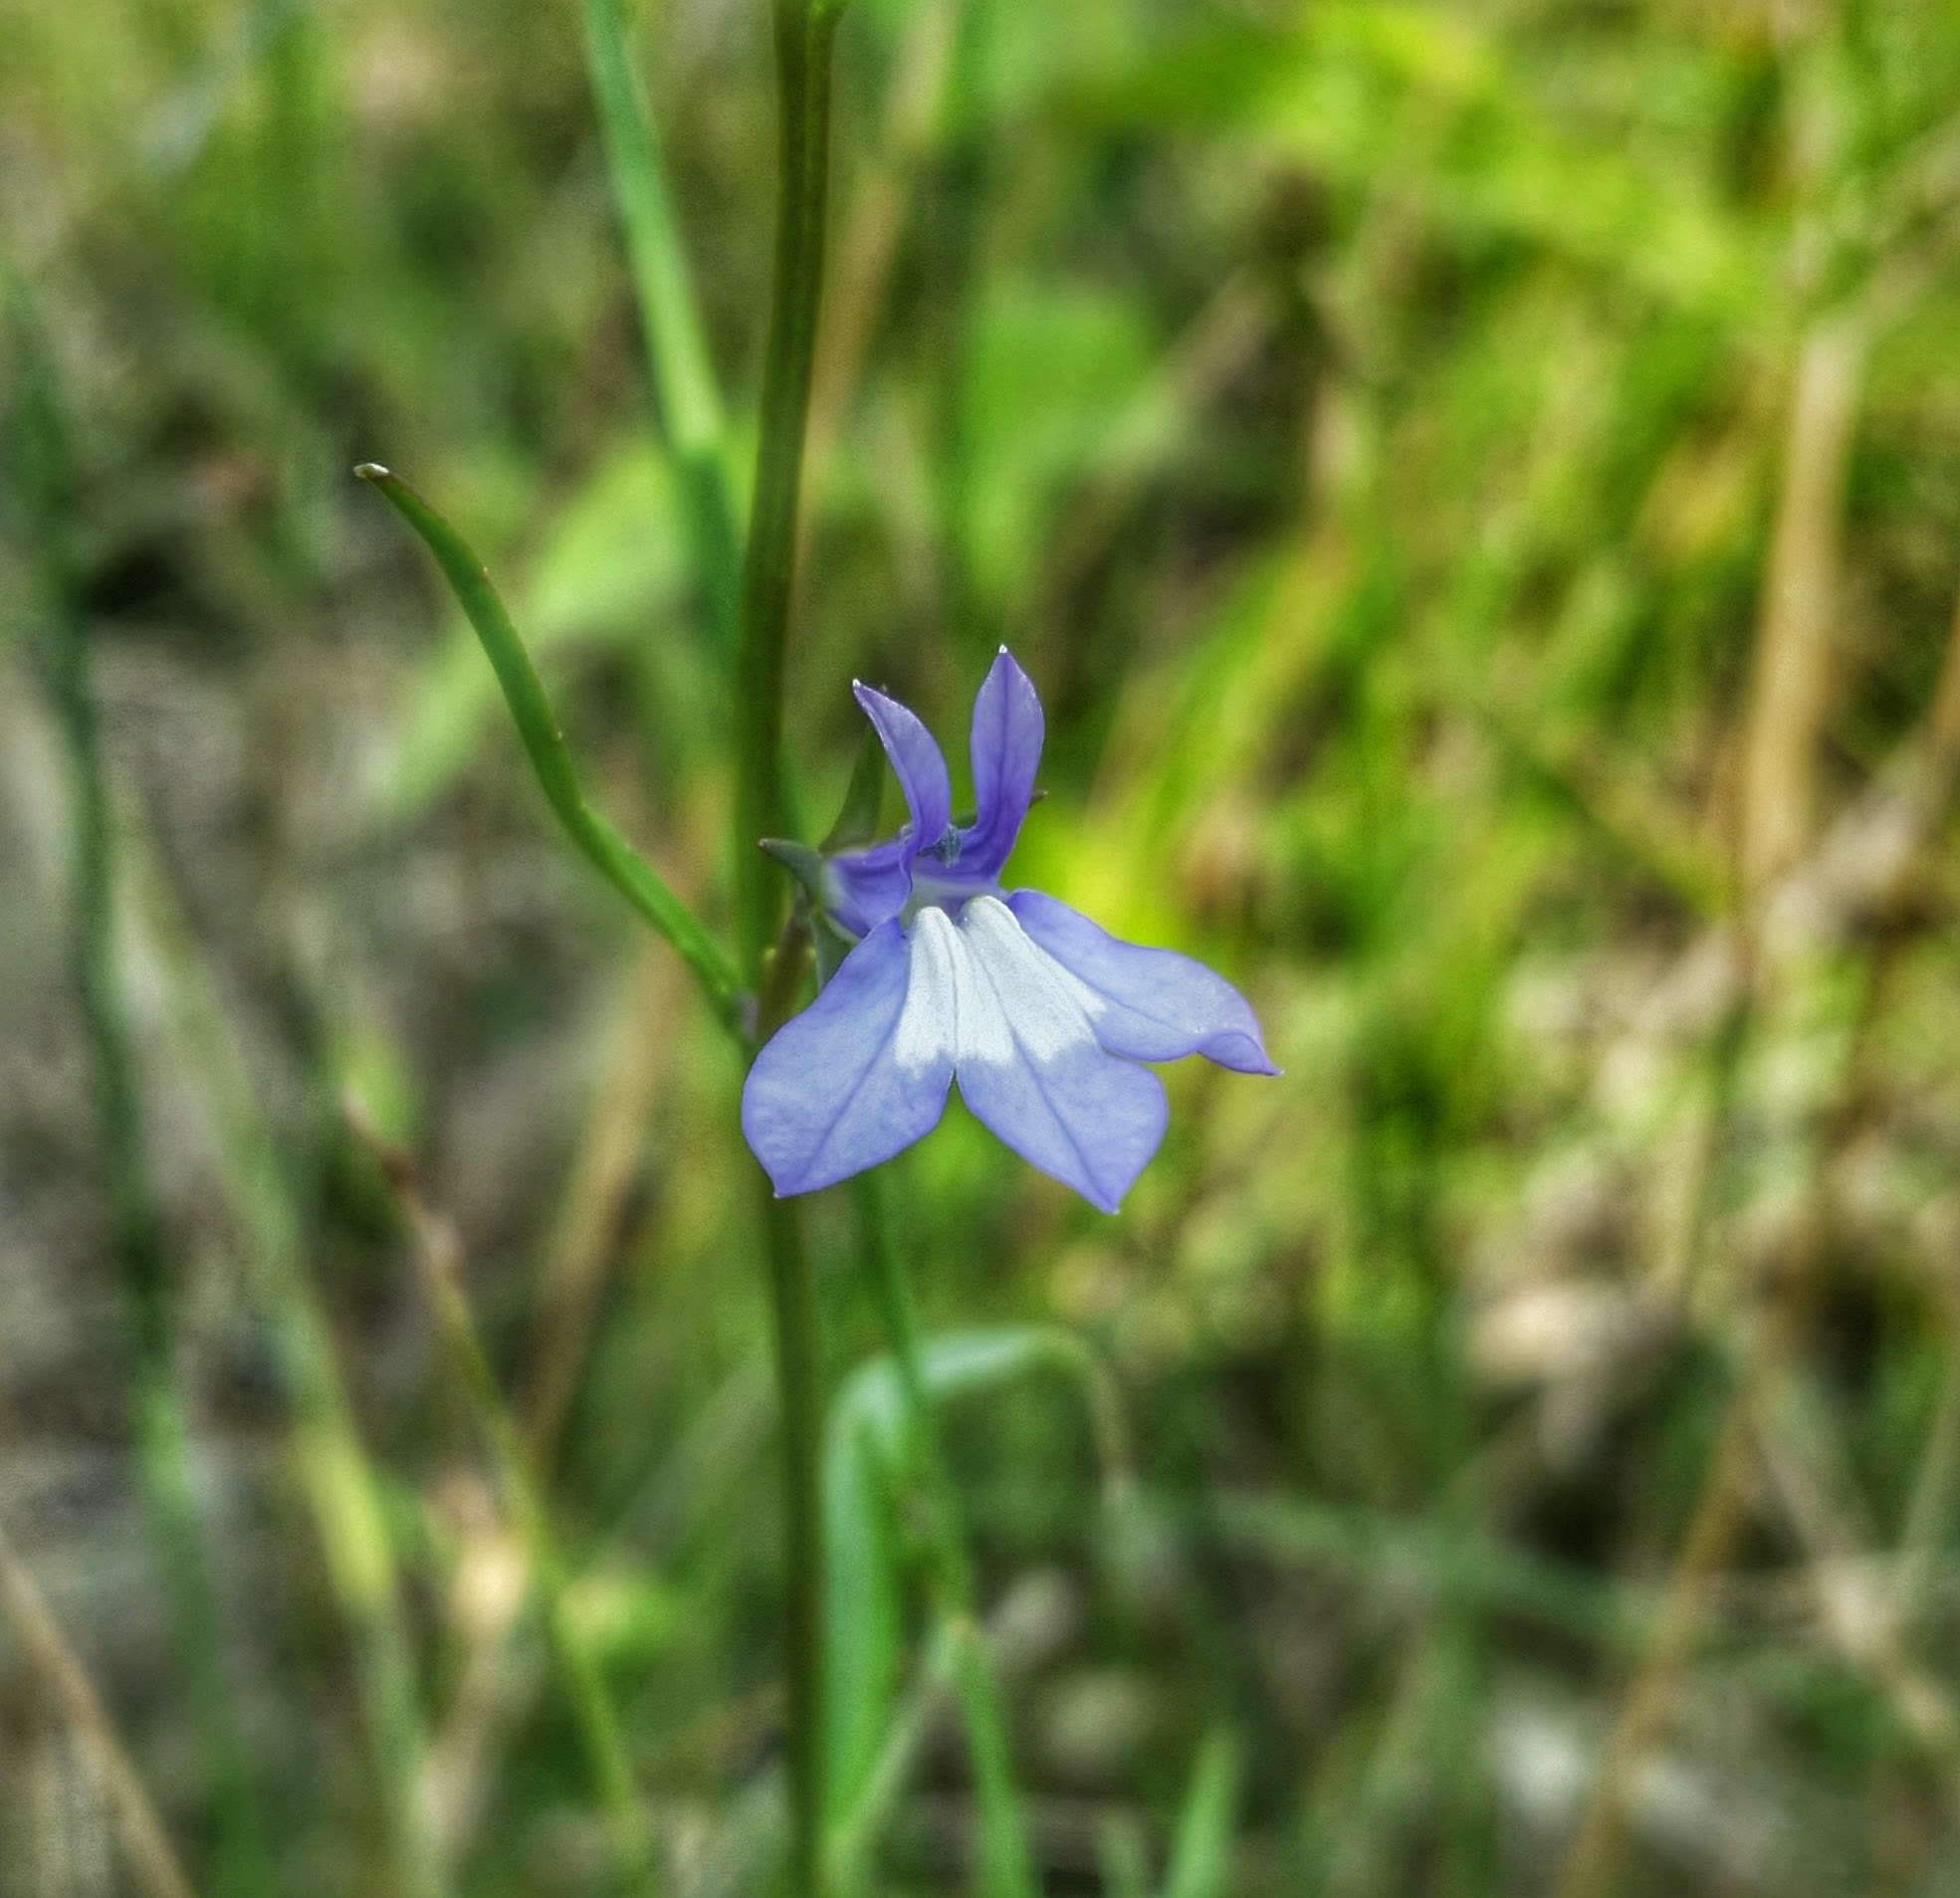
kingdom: Plantae
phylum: Tracheophyta
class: Magnoliopsida
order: Asterales
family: Campanulaceae
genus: Lobelia
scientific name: Lobelia kalmii
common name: Kalm's lobelia
